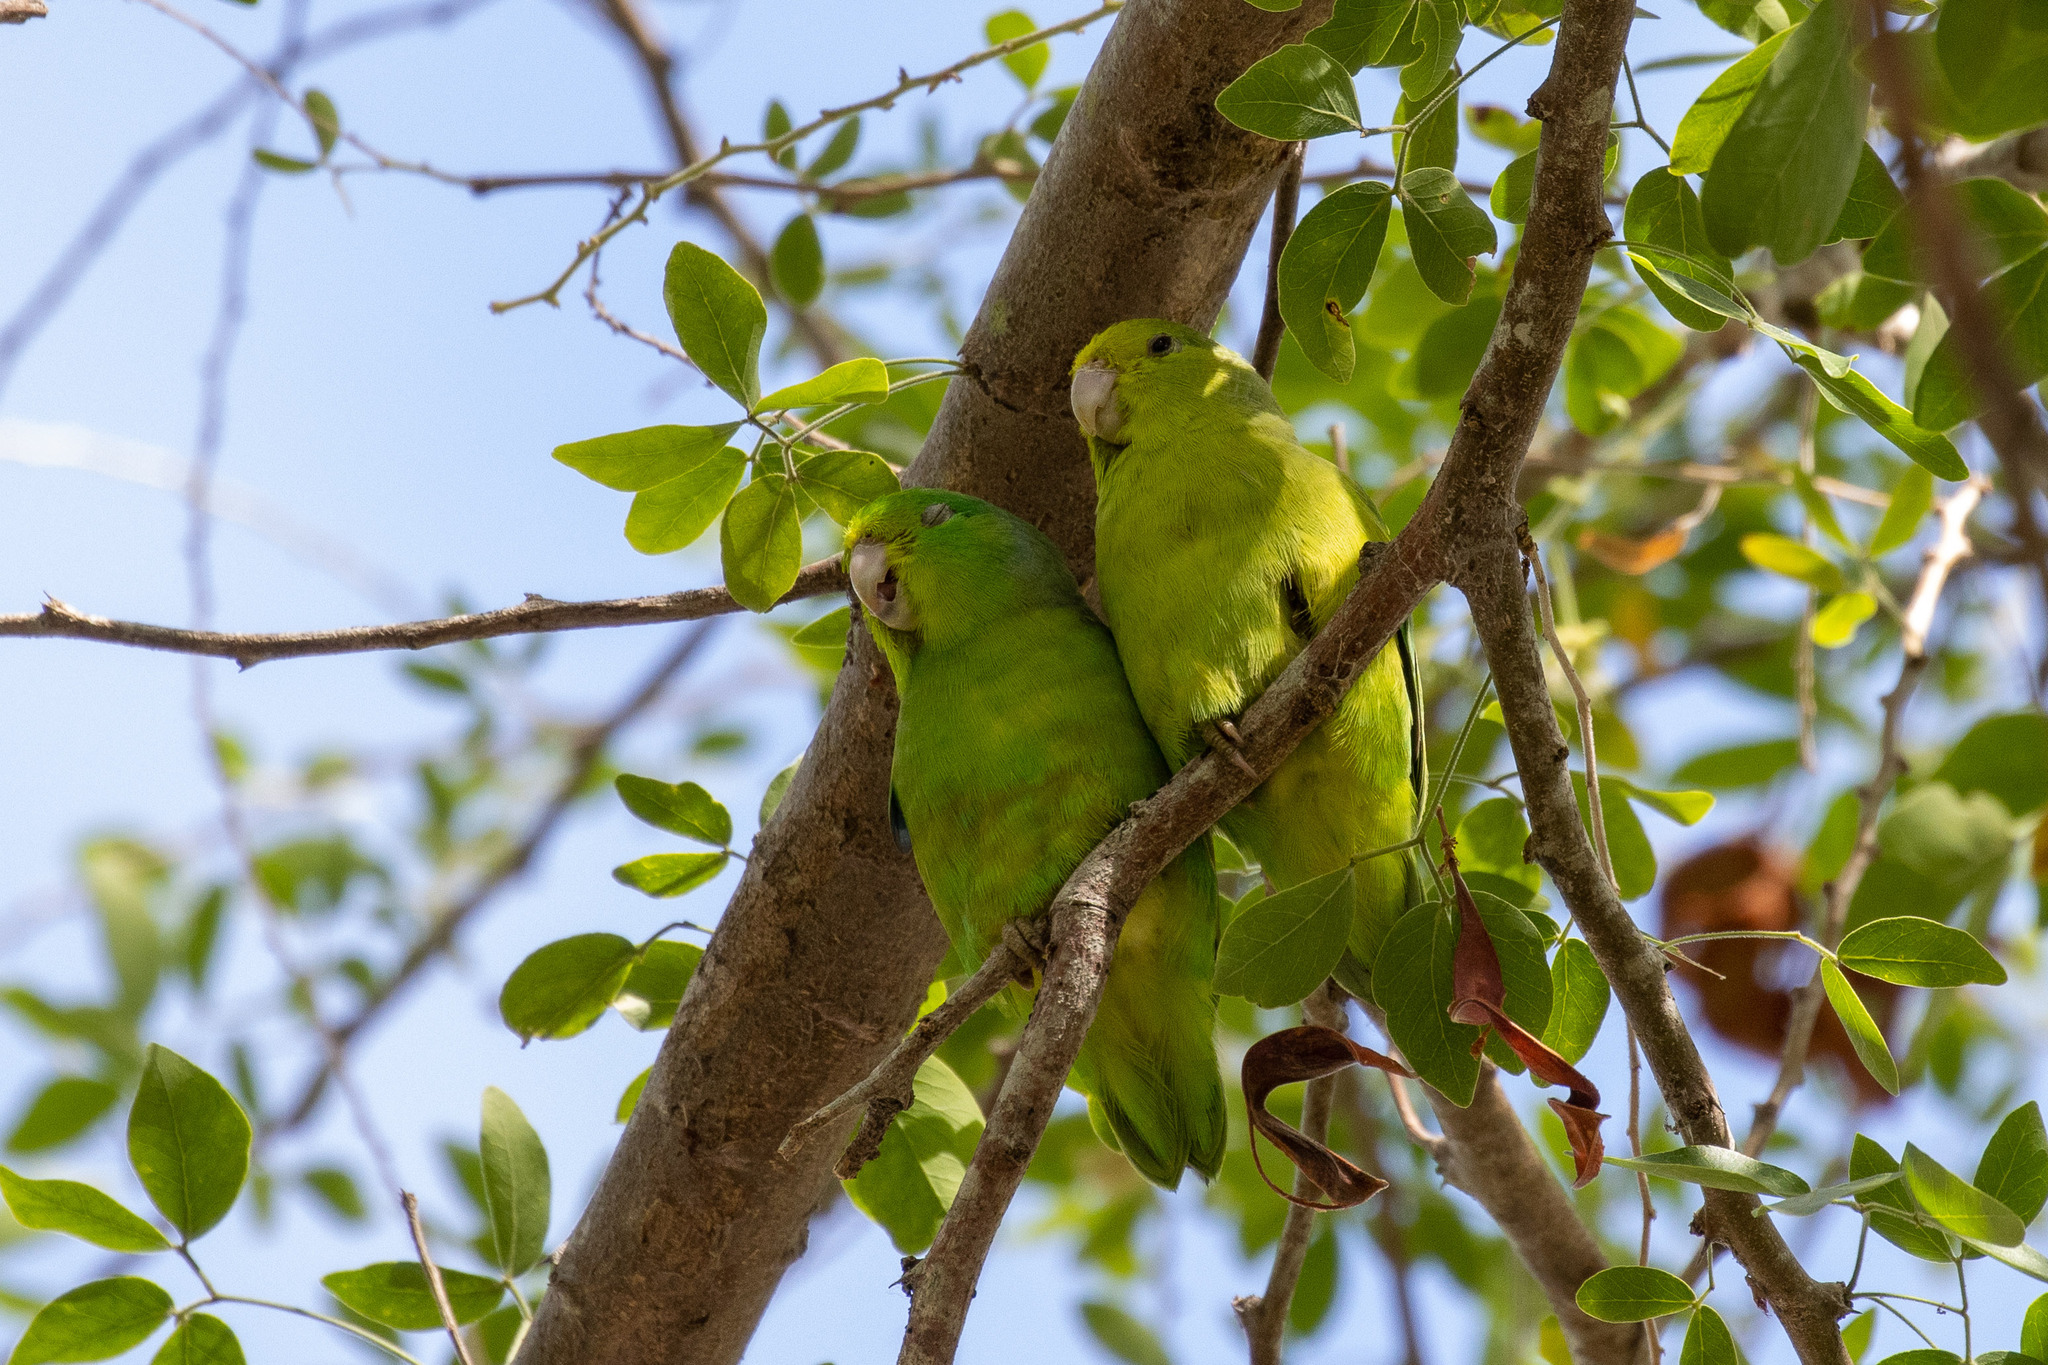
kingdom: Animalia
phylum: Chordata
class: Aves
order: Psittaciformes
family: Psittacidae
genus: Forpus
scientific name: Forpus xanthopterygius
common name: Blue-winged parrotlet
